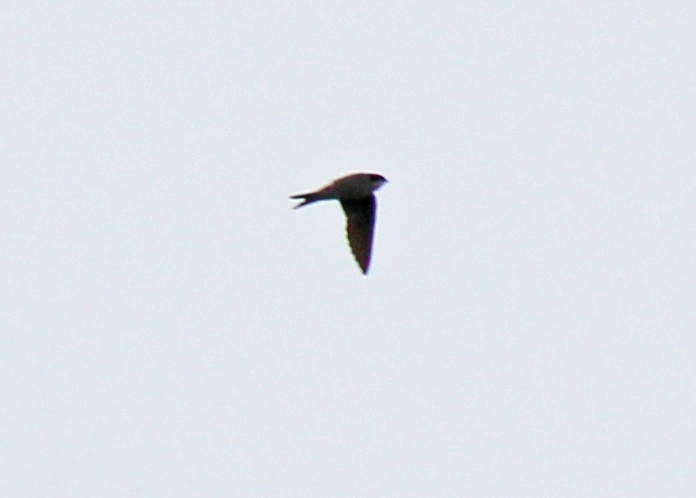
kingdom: Animalia
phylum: Chordata
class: Aves
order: Passeriformes
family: Hirundinidae
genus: Riparia
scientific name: Riparia riparia
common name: Sand martin
